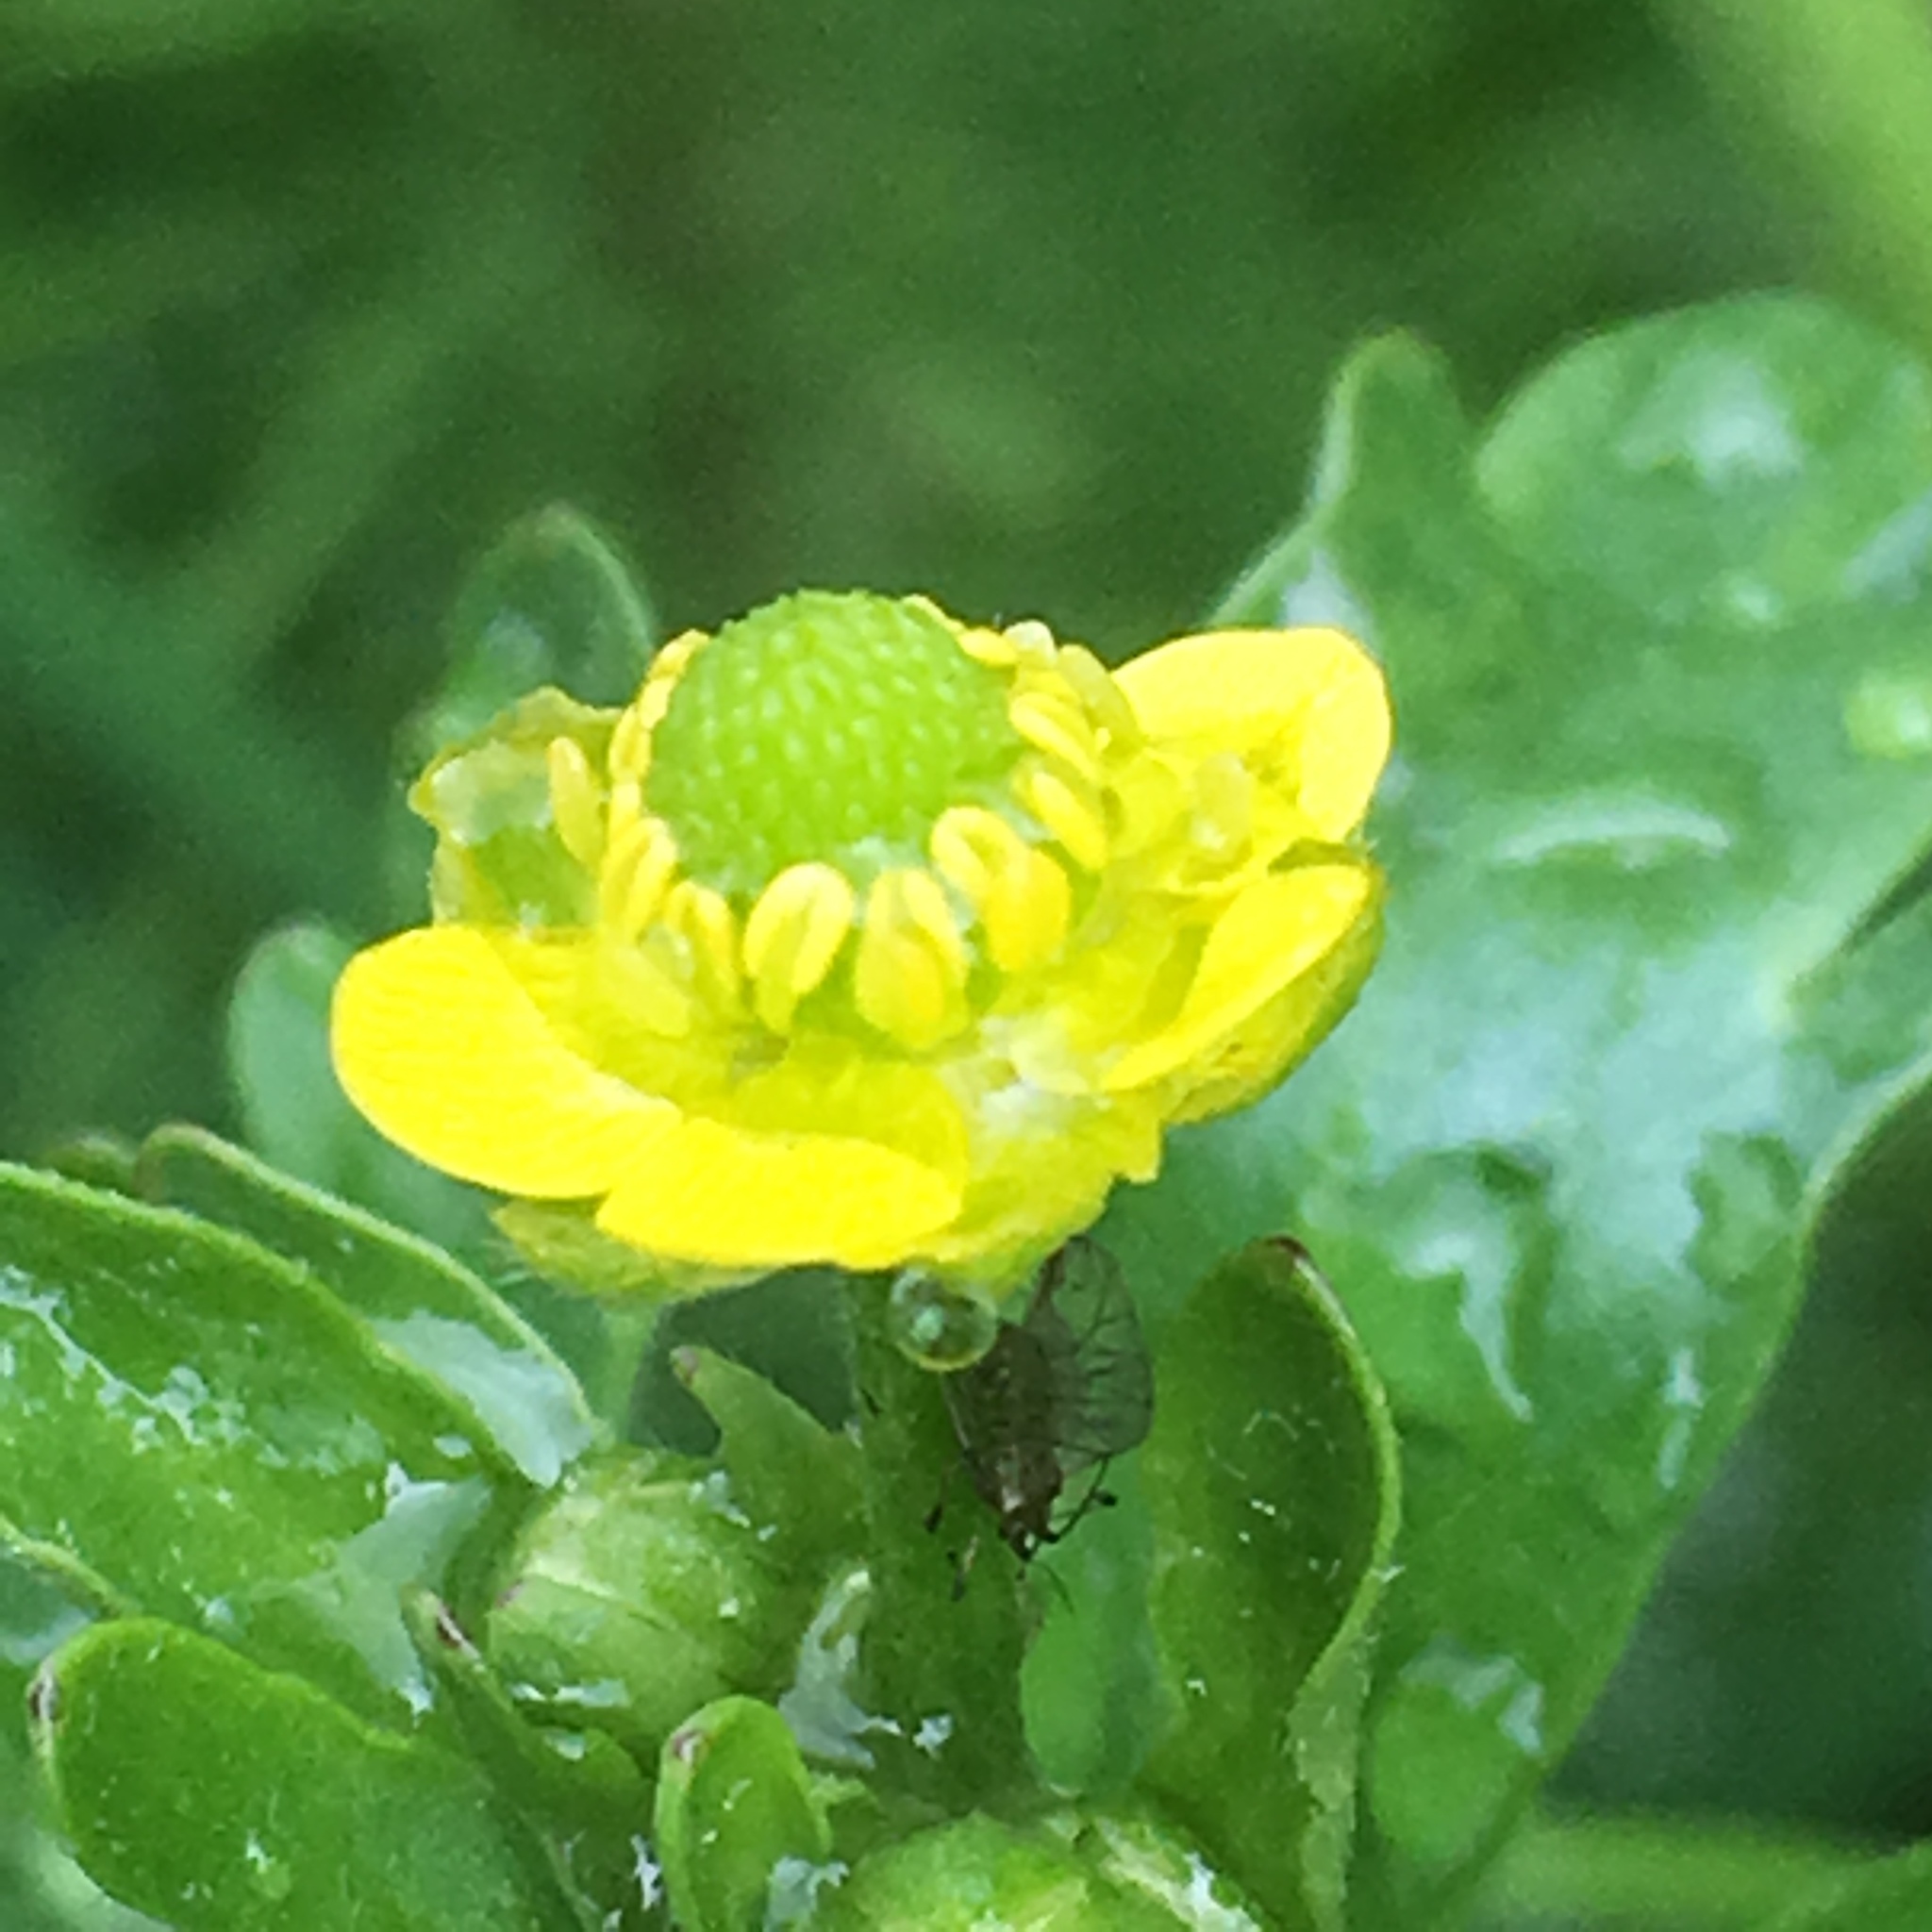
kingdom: Plantae
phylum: Tracheophyta
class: Magnoliopsida
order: Ranunculales
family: Ranunculaceae
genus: Ranunculus
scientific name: Ranunculus sceleratus
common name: Celery-leaved buttercup
